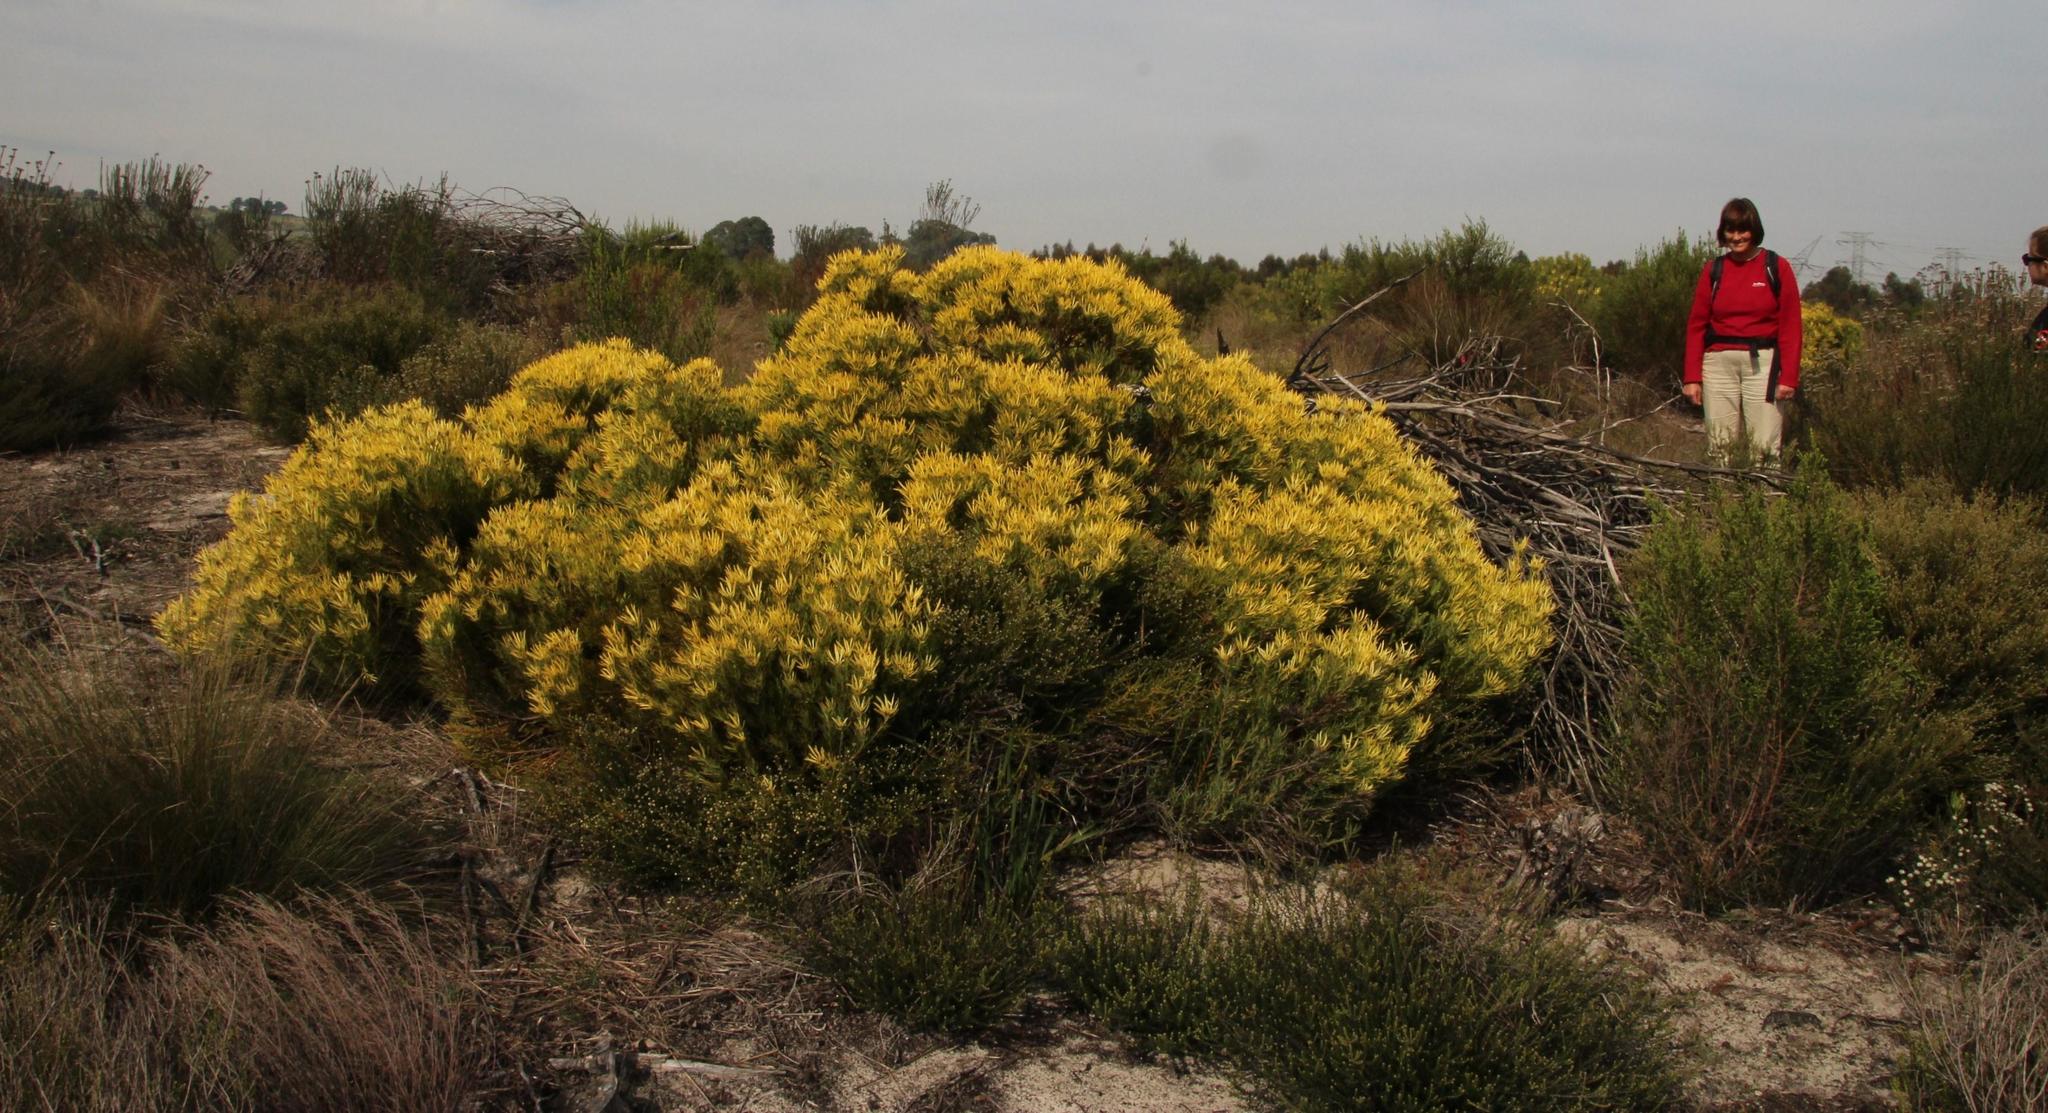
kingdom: Plantae
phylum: Tracheophyta
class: Magnoliopsida
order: Proteales
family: Proteaceae
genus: Leucadendron
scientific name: Leucadendron salignum
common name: Common sunshine conebush
